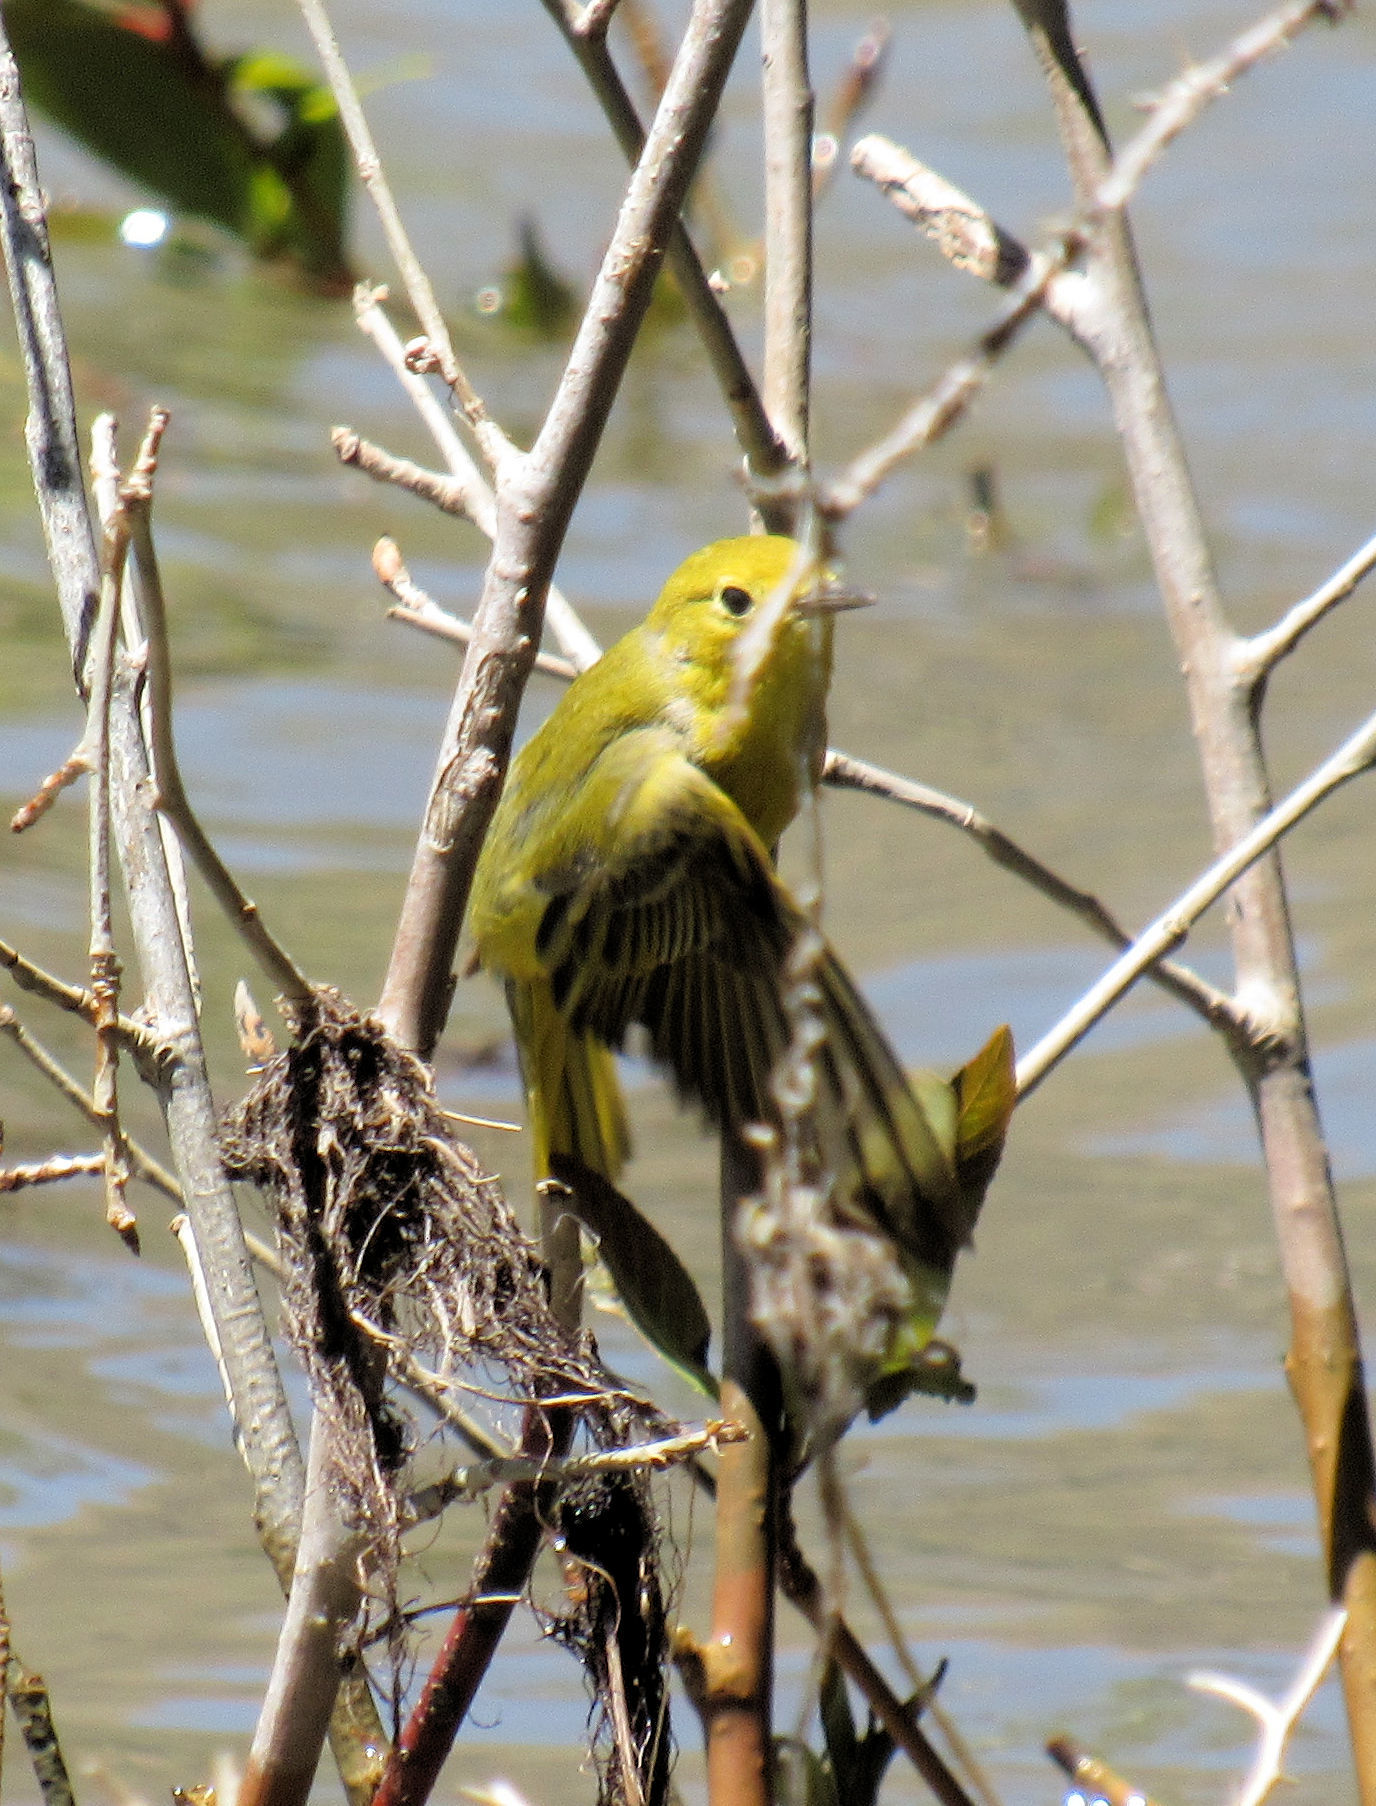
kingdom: Animalia
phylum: Chordata
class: Aves
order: Passeriformes
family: Parulidae
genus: Setophaga
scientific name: Setophaga petechia
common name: Yellow warbler
